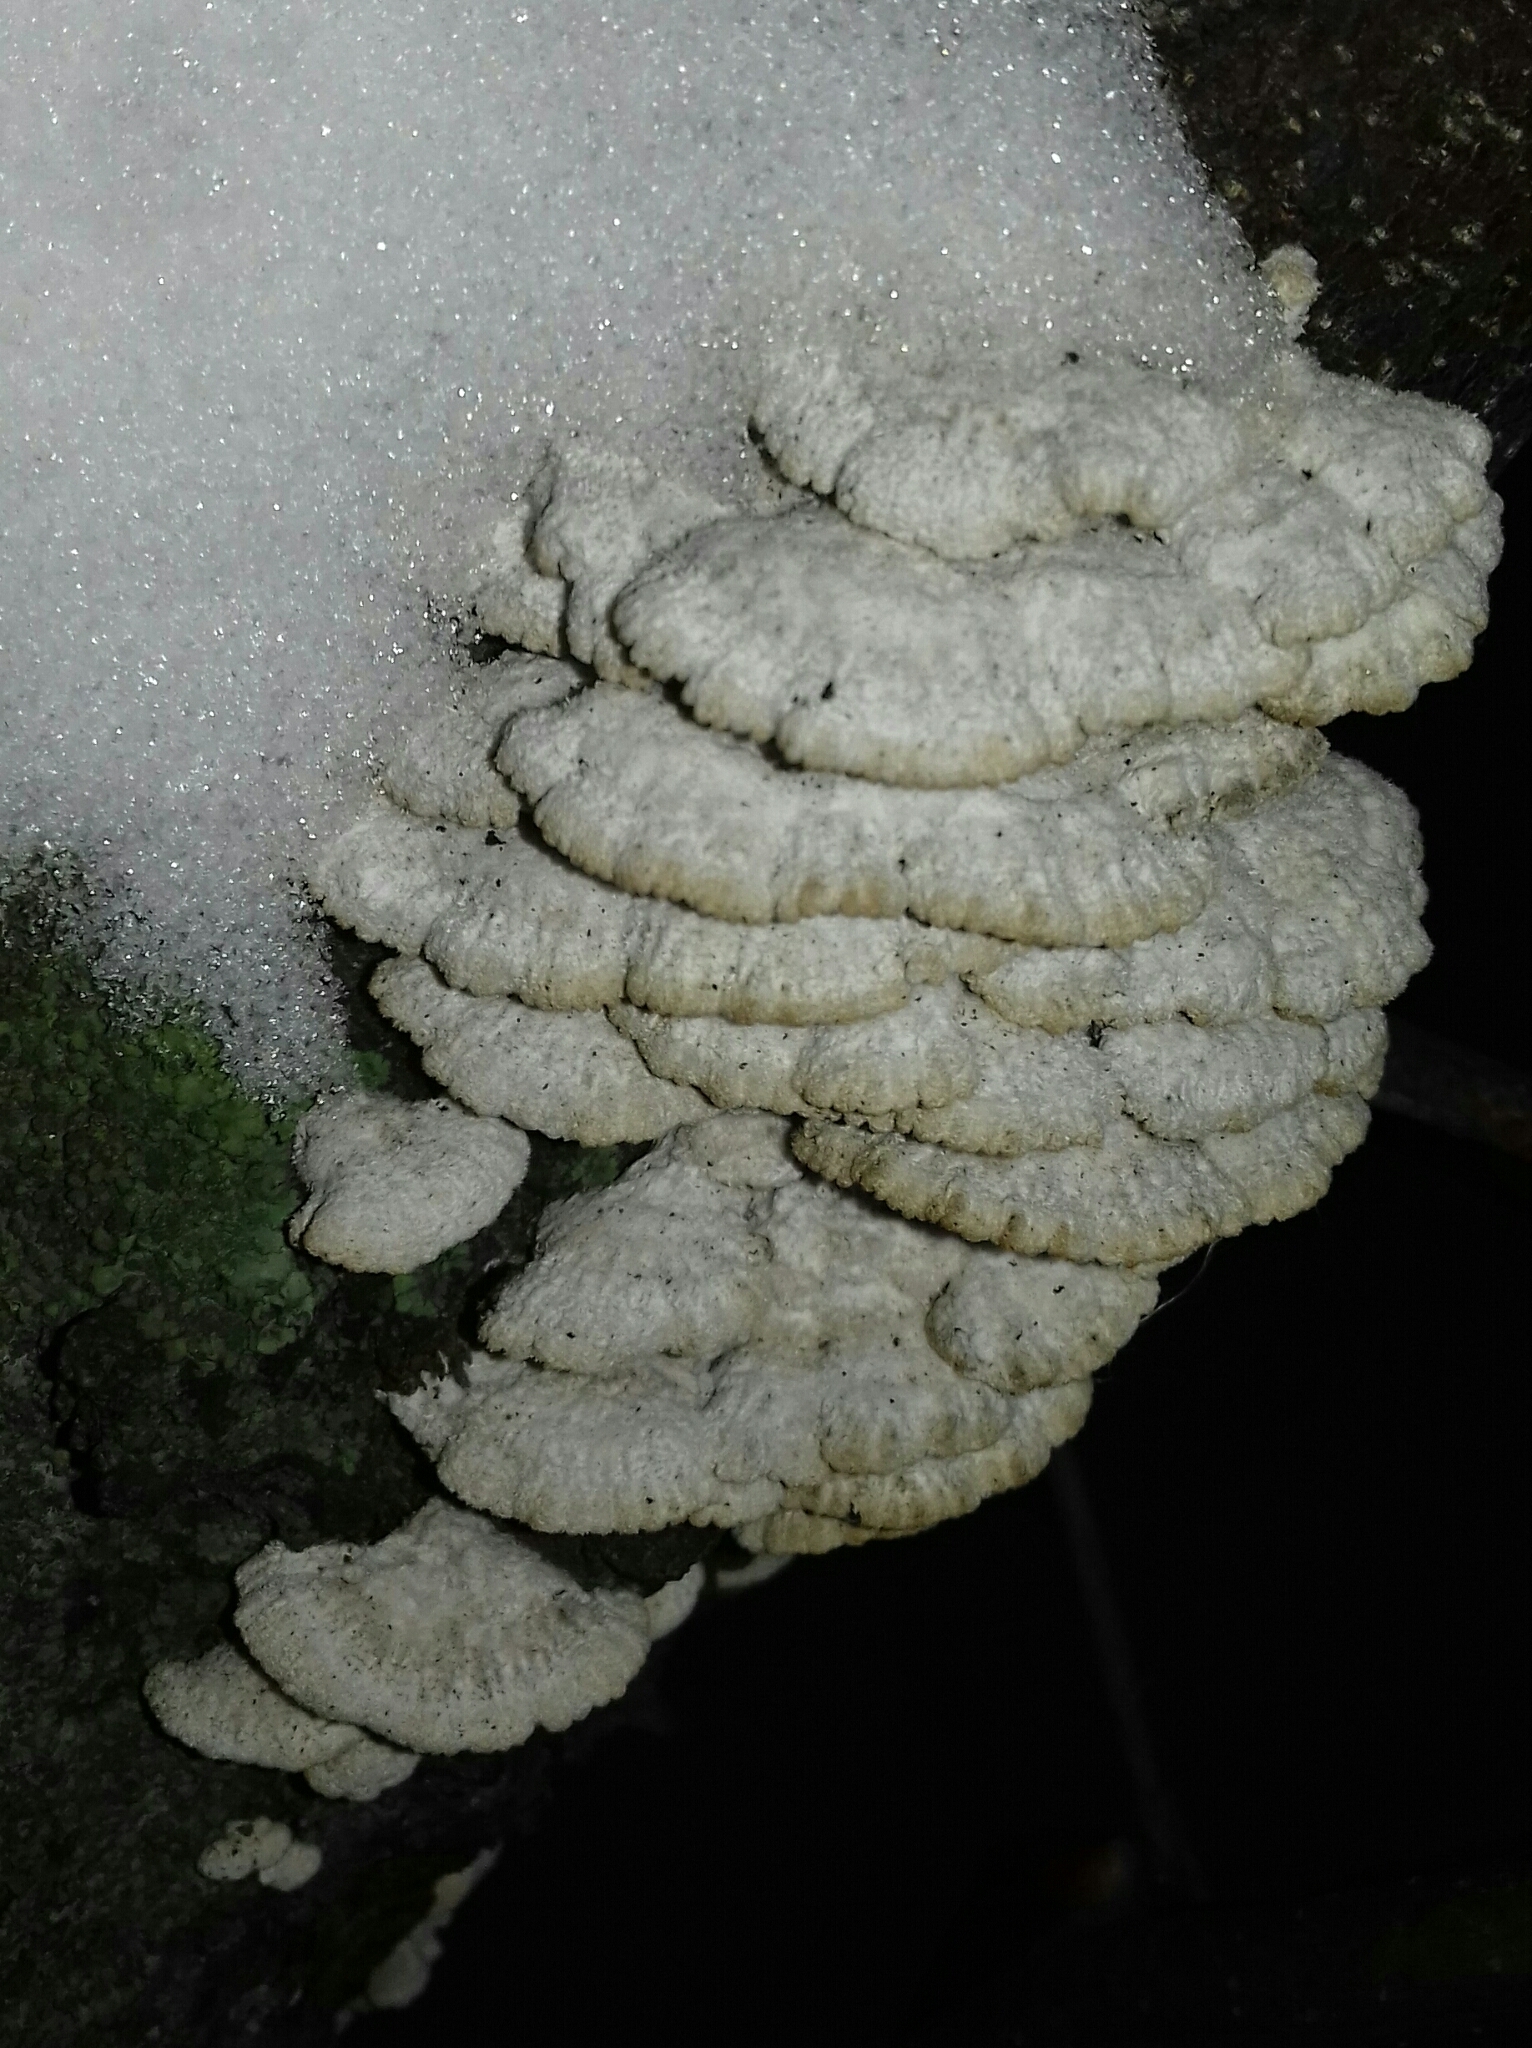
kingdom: Fungi
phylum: Basidiomycota
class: Agaricomycetes
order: Agaricales
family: Schizophyllaceae
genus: Schizophyllum
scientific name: Schizophyllum commune
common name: Common porecrust
